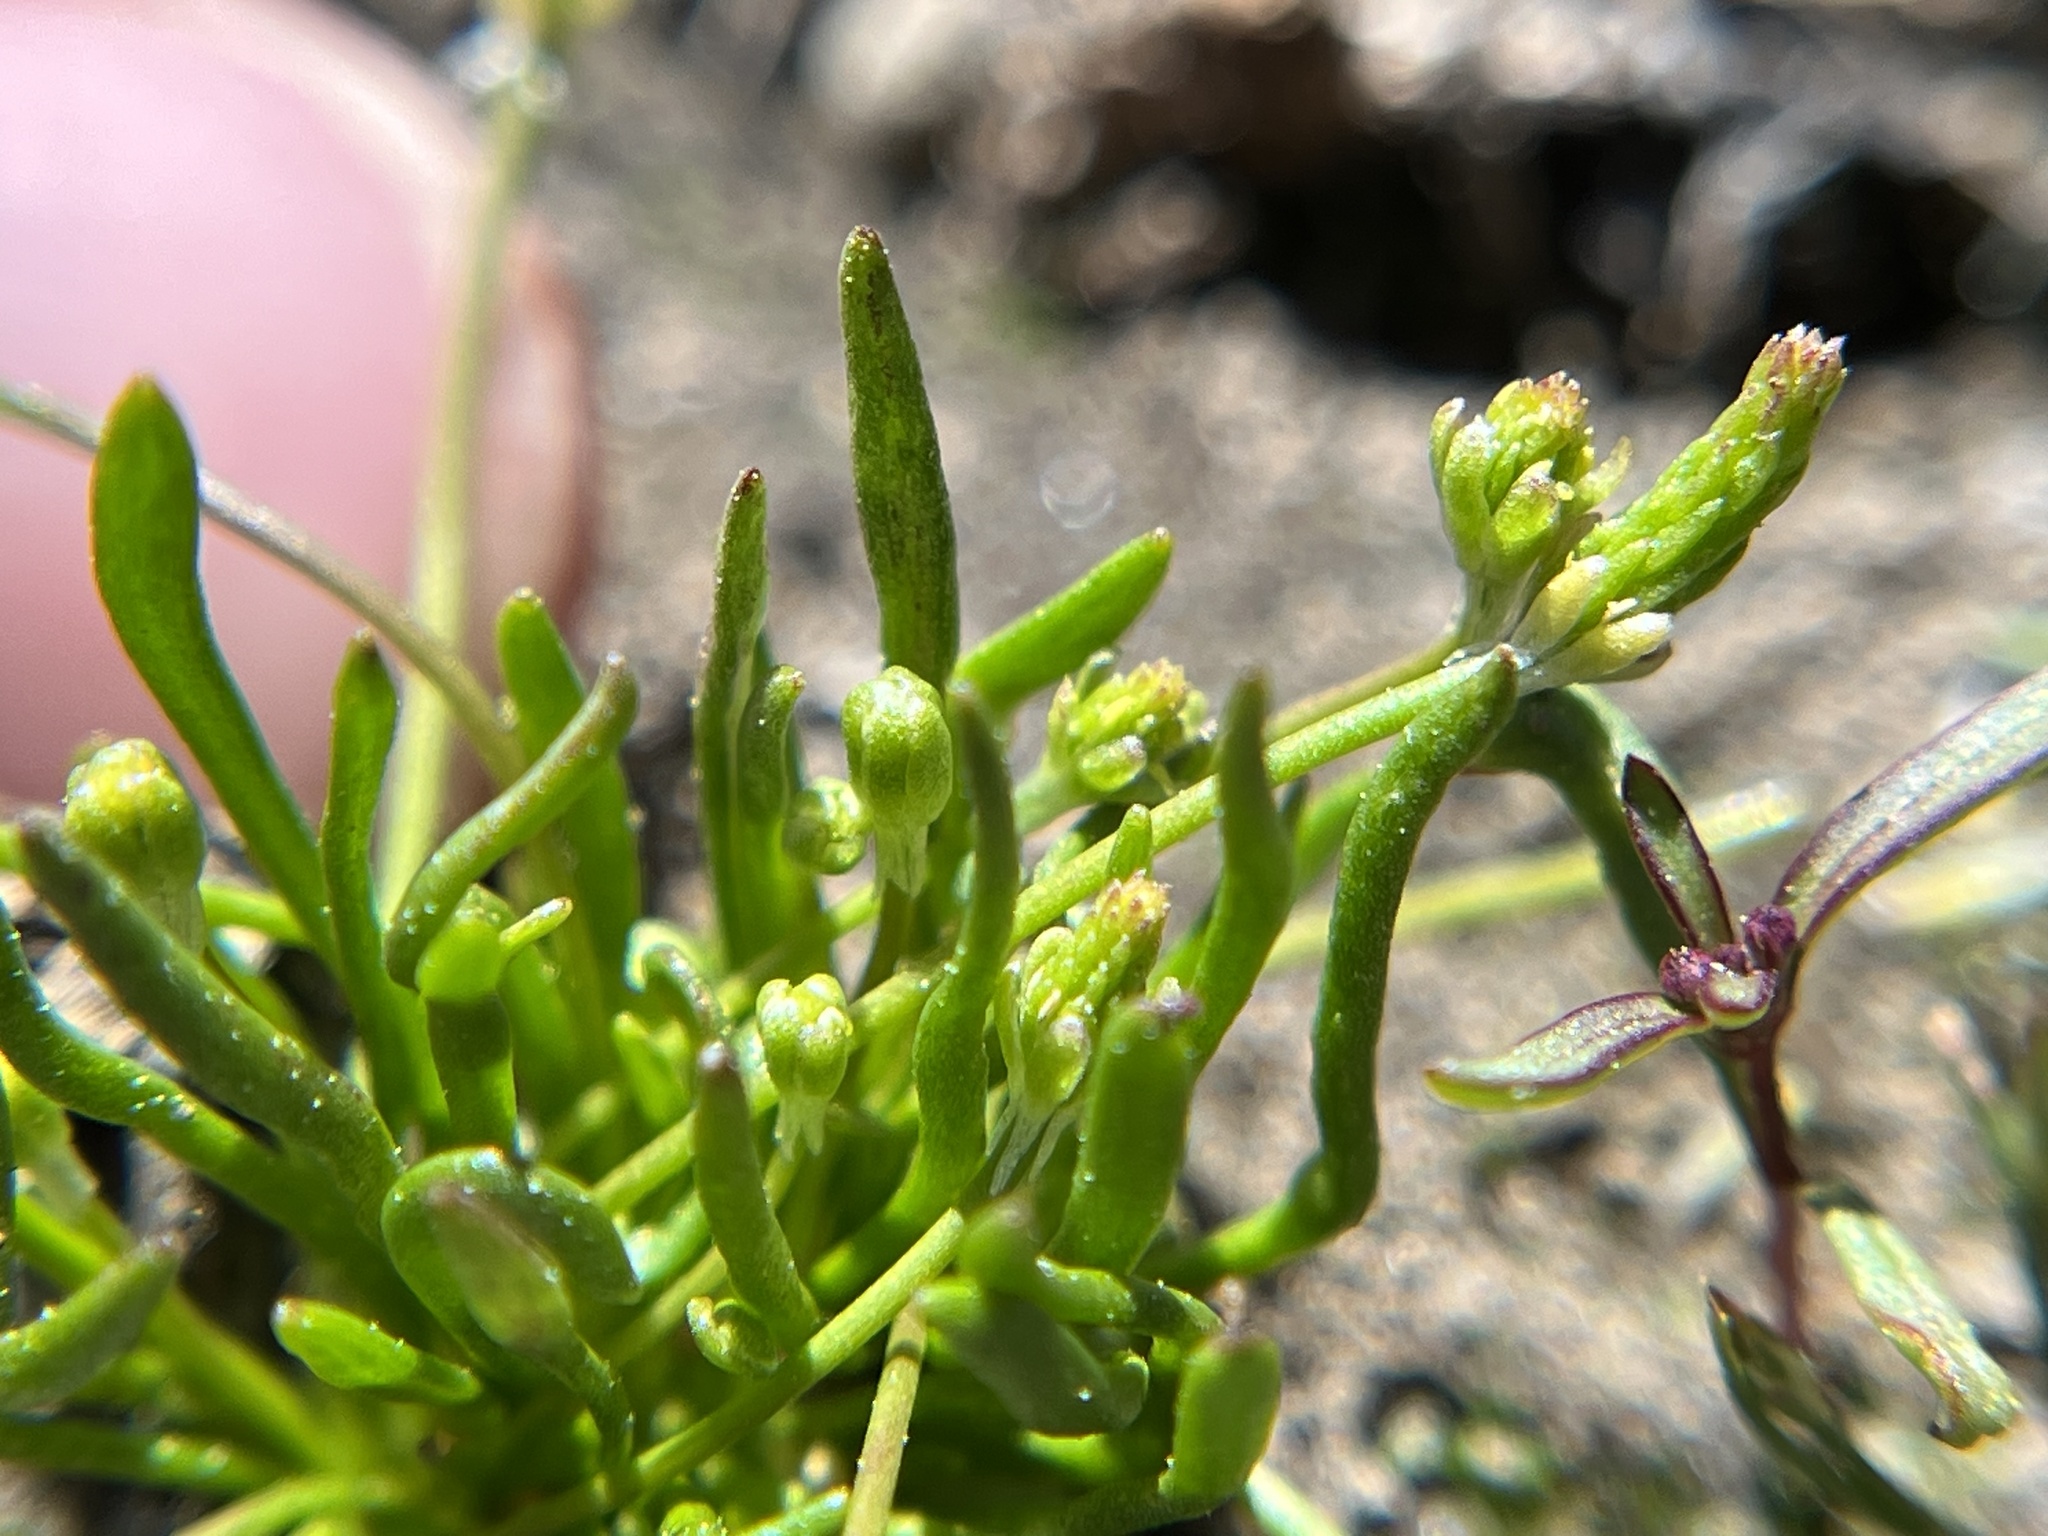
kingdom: Plantae
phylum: Tracheophyta
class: Magnoliopsida
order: Ranunculales
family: Ranunculaceae
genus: Myosurus
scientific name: Myosurus minimus
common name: Mousetail
